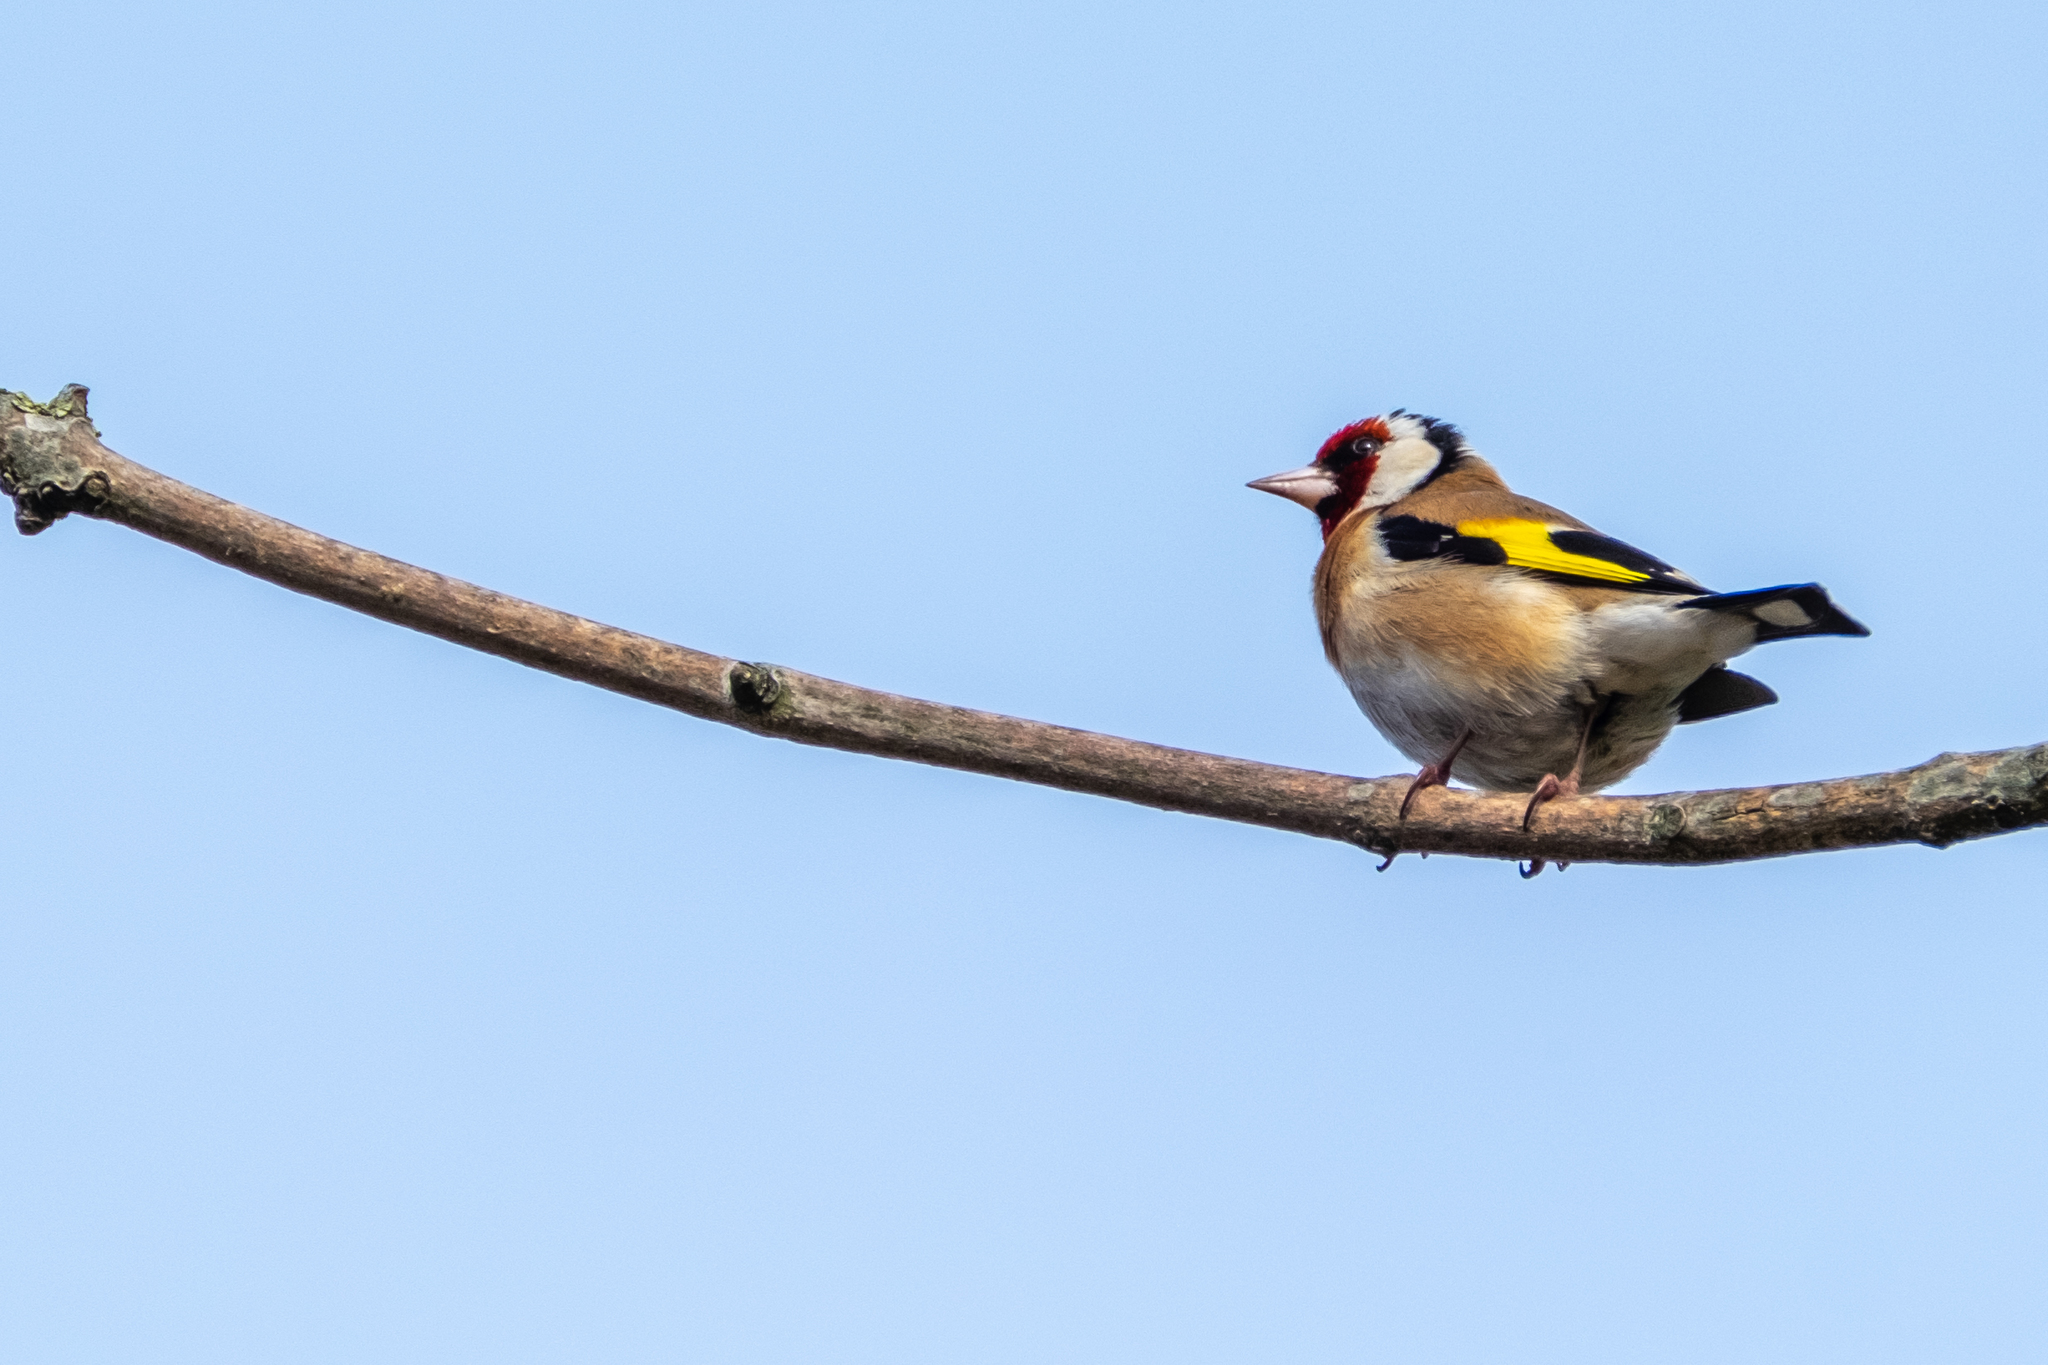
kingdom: Animalia
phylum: Chordata
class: Aves
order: Passeriformes
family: Fringillidae
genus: Carduelis
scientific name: Carduelis carduelis
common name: European goldfinch
